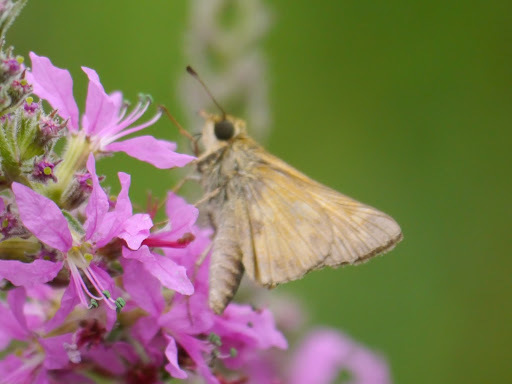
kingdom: Animalia
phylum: Arthropoda
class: Insecta
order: Lepidoptera
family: Hesperiidae
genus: Atalopedes
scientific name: Atalopedes
